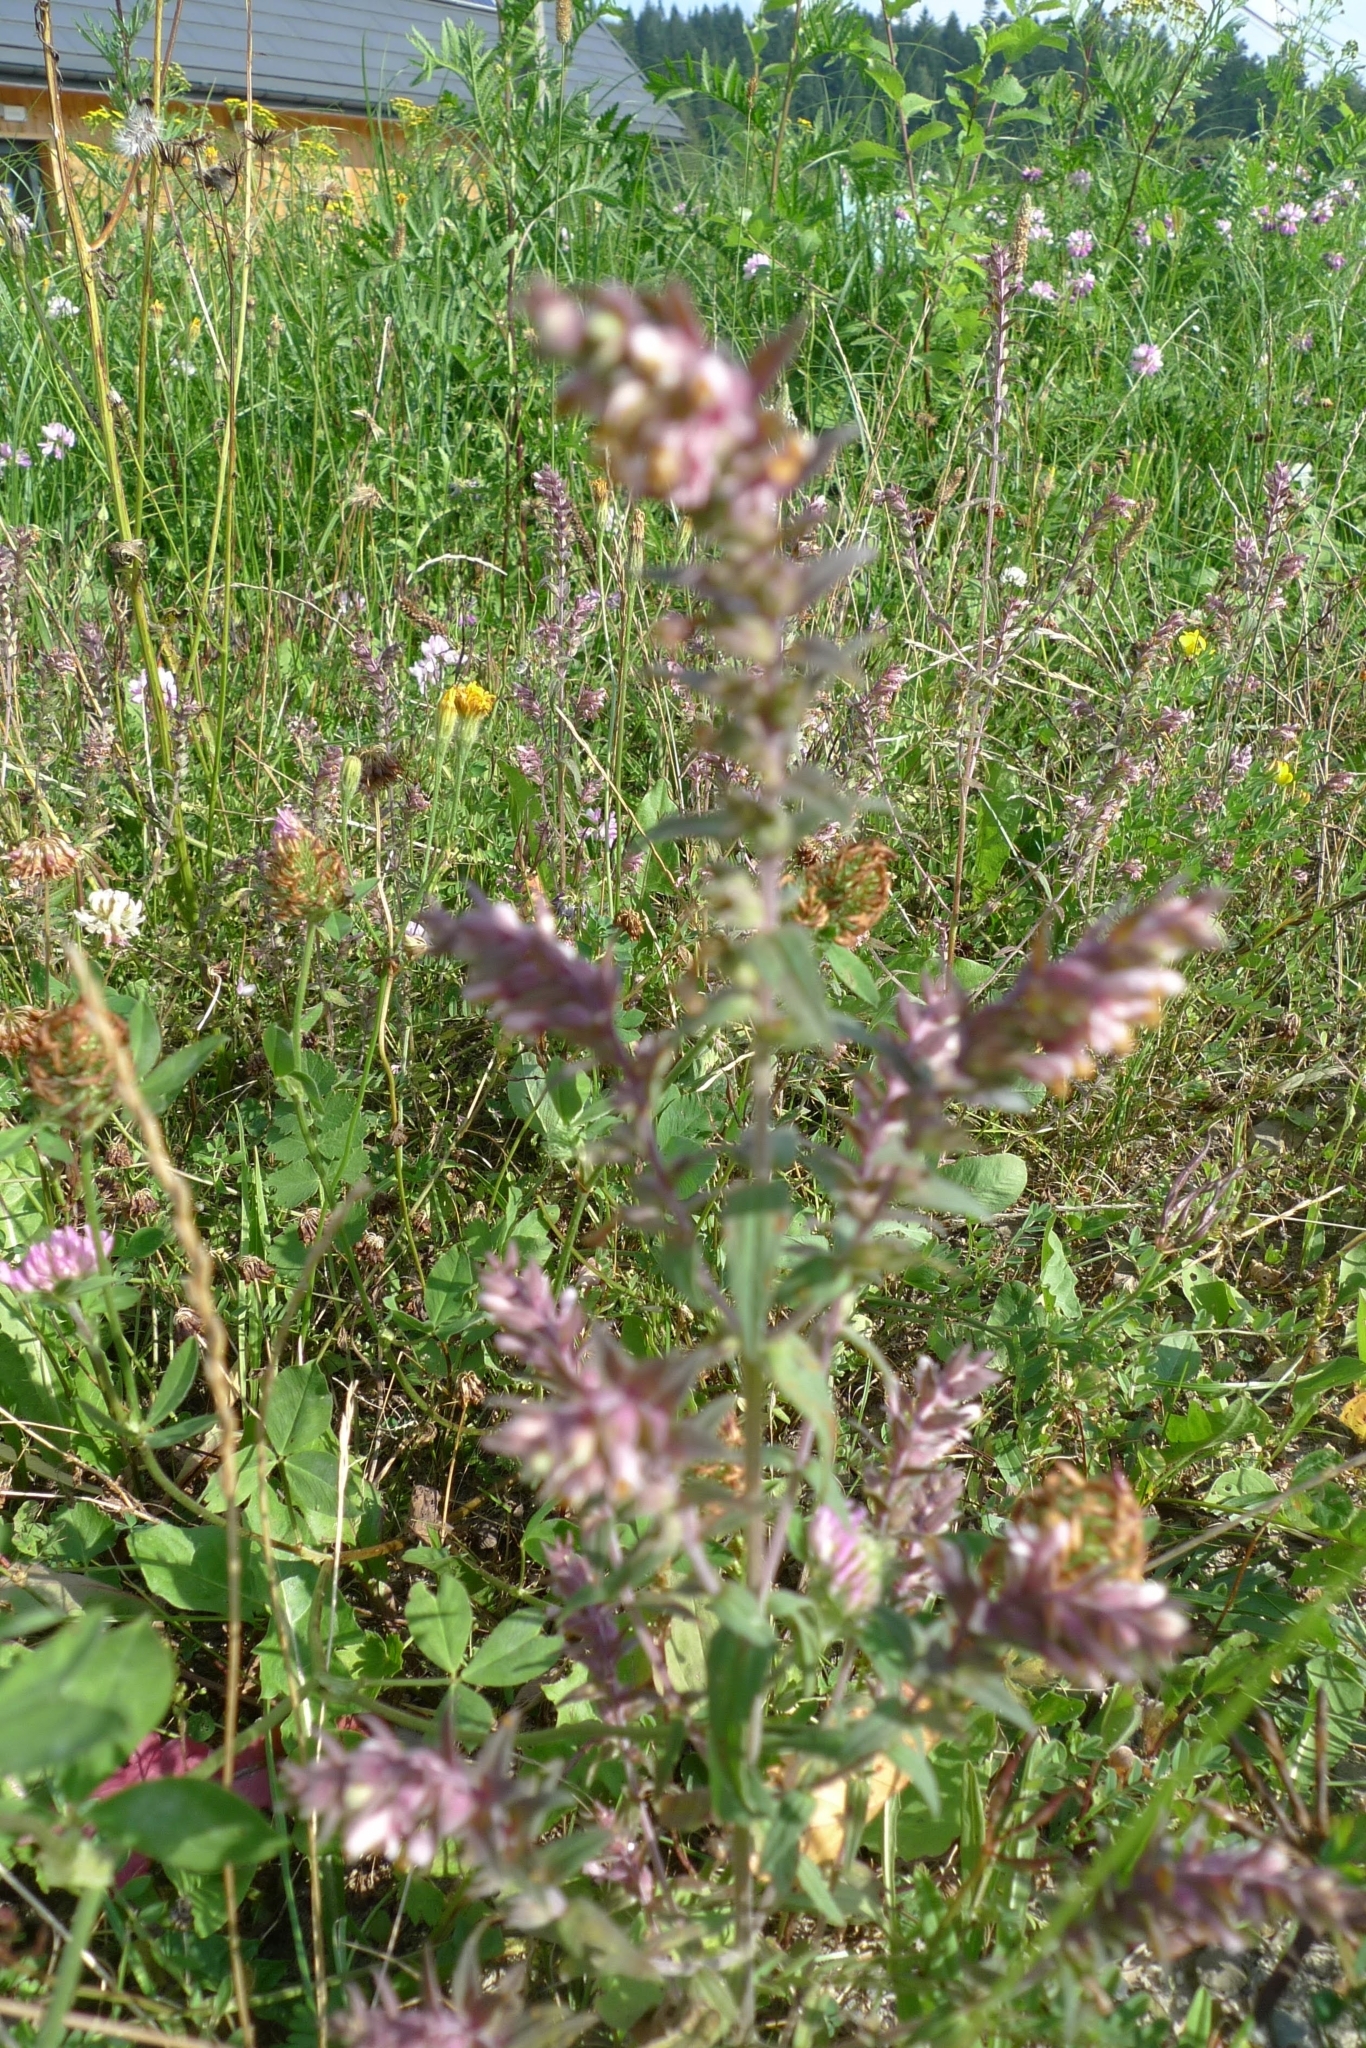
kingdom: Plantae
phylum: Tracheophyta
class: Magnoliopsida
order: Lamiales
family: Orobanchaceae
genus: Odontites
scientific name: Odontites vulgaris
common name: Broomrape
